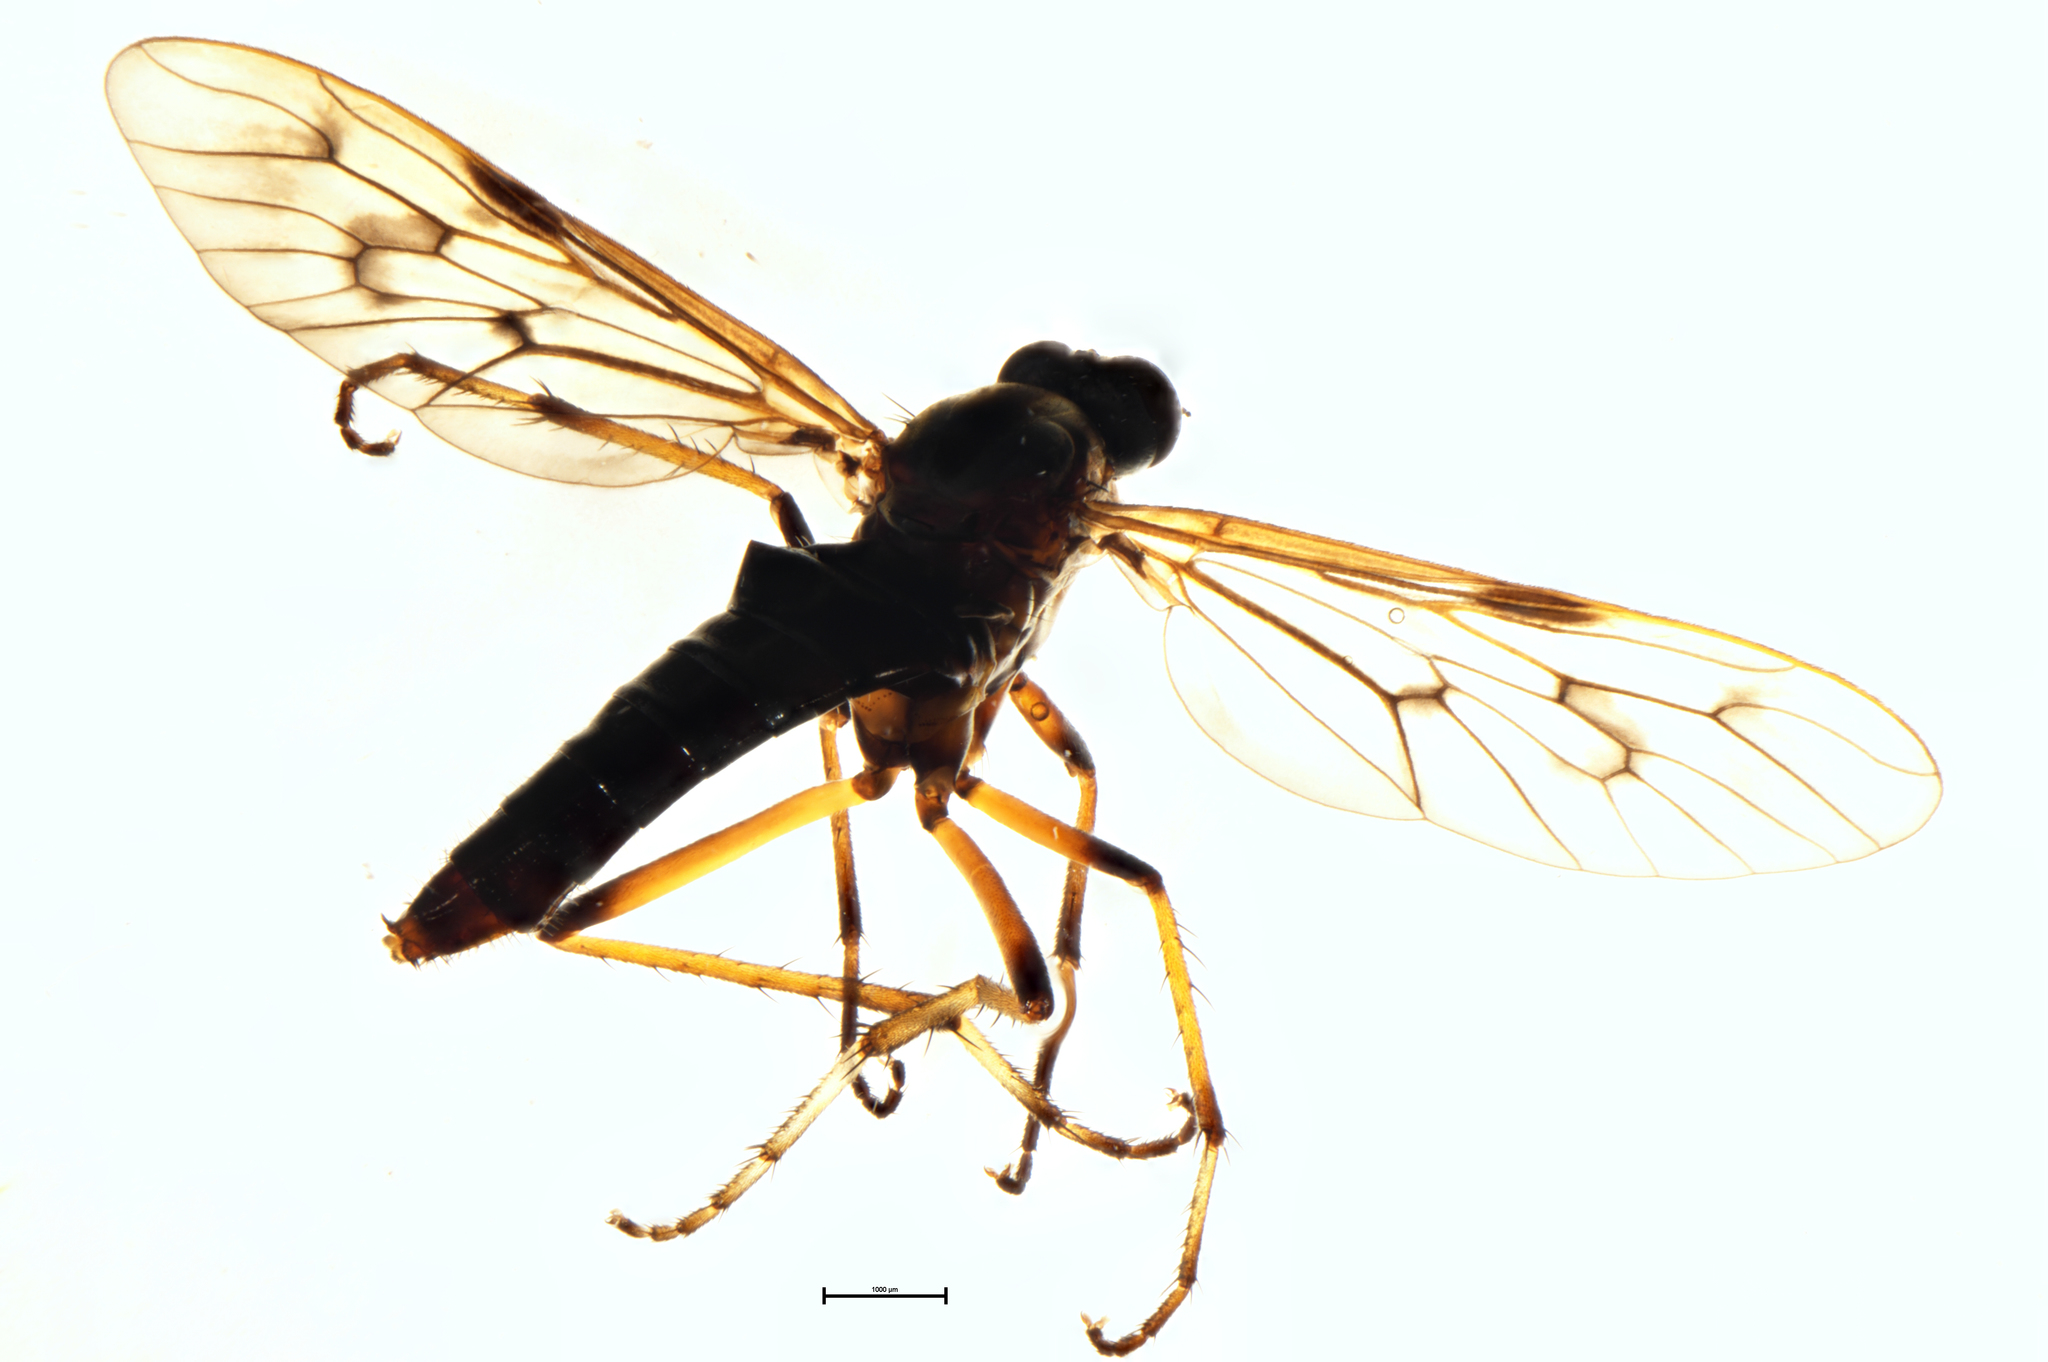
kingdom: Animalia
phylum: Arthropoda
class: Insecta
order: Diptera
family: Therevidae
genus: Ectinorhynchus
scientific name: Ectinorhynchus
